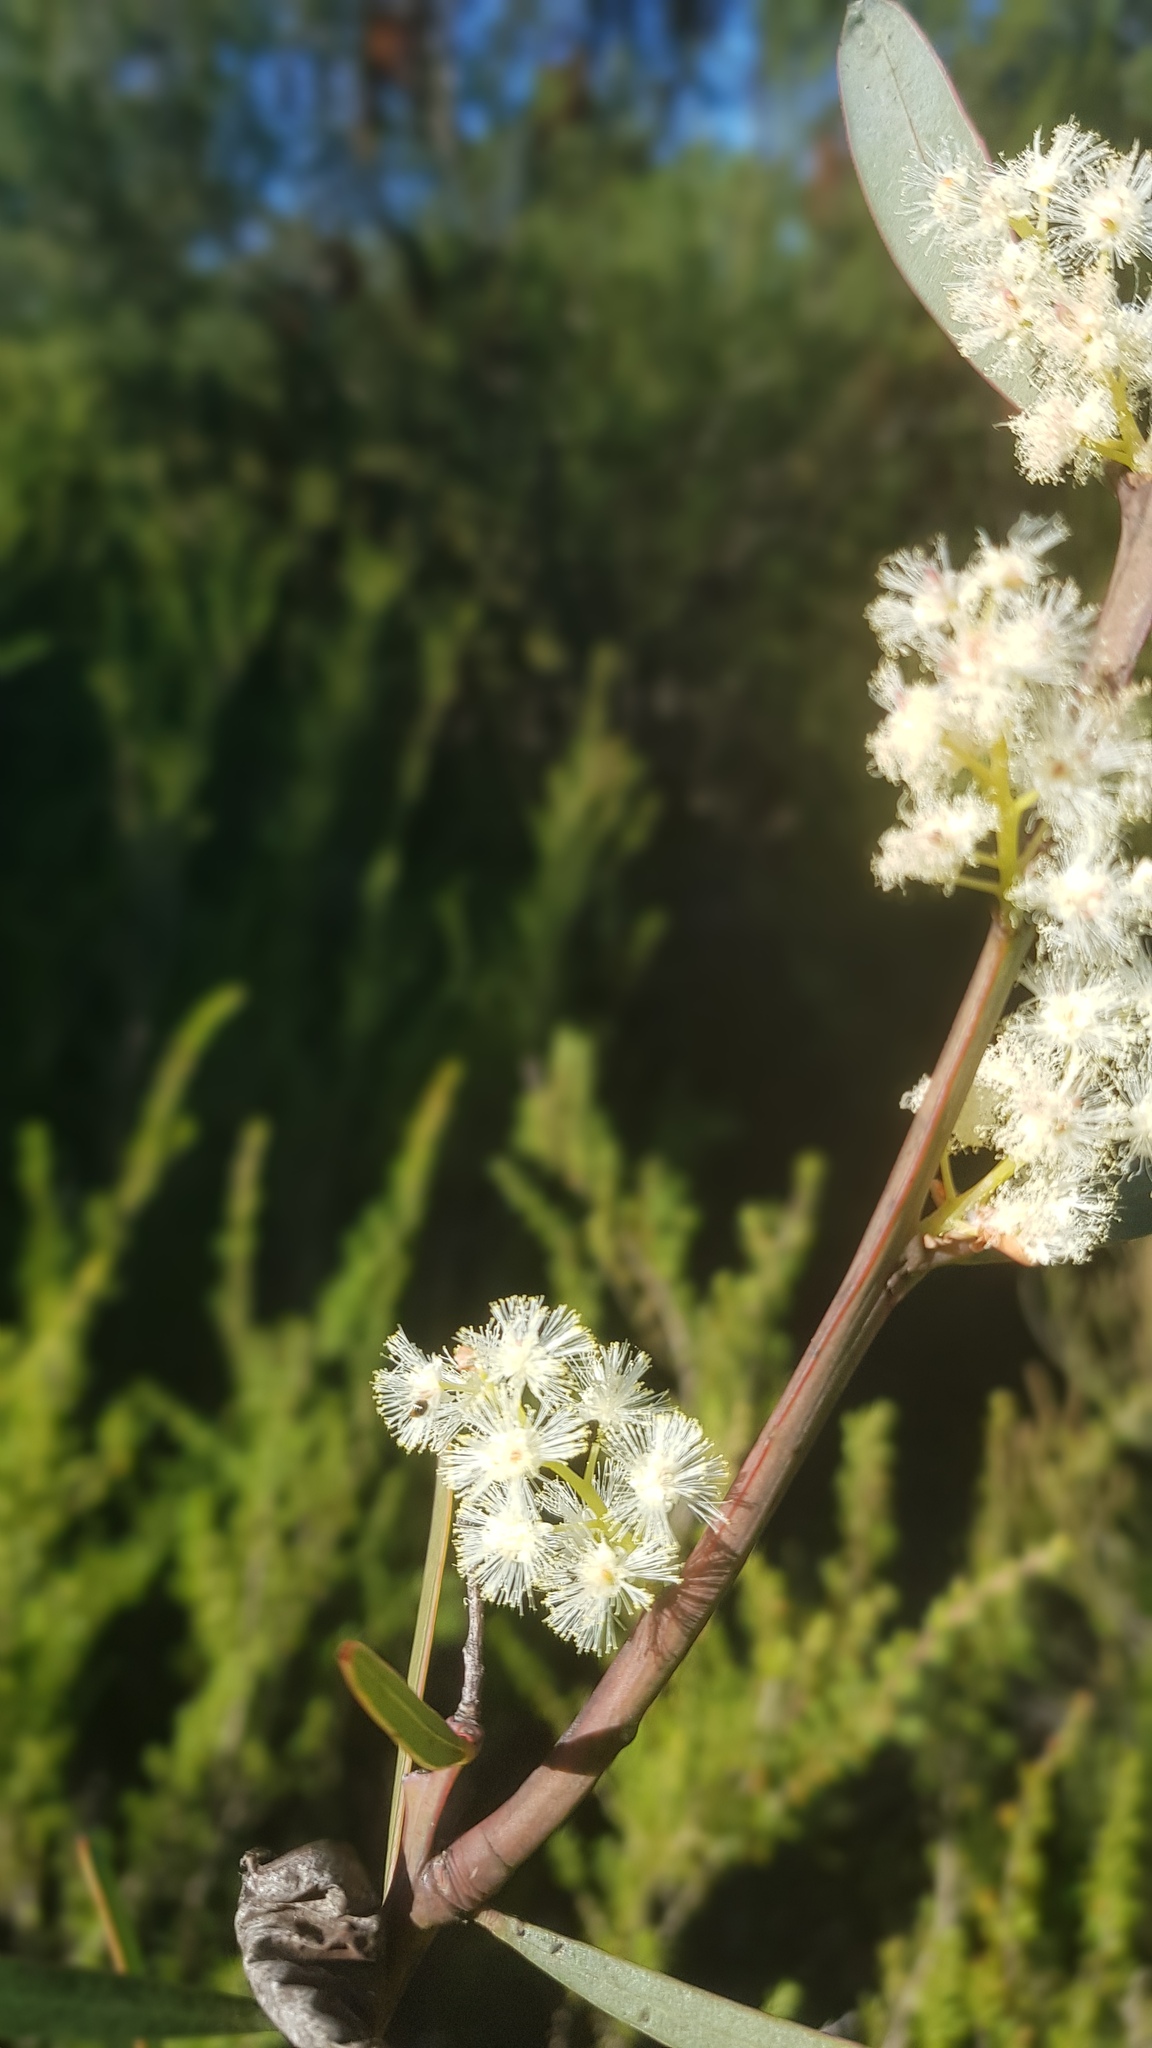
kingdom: Plantae
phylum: Tracheophyta
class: Magnoliopsida
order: Fabales
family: Fabaceae
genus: Acacia
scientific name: Acacia suaveolens
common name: Sweet acacia
